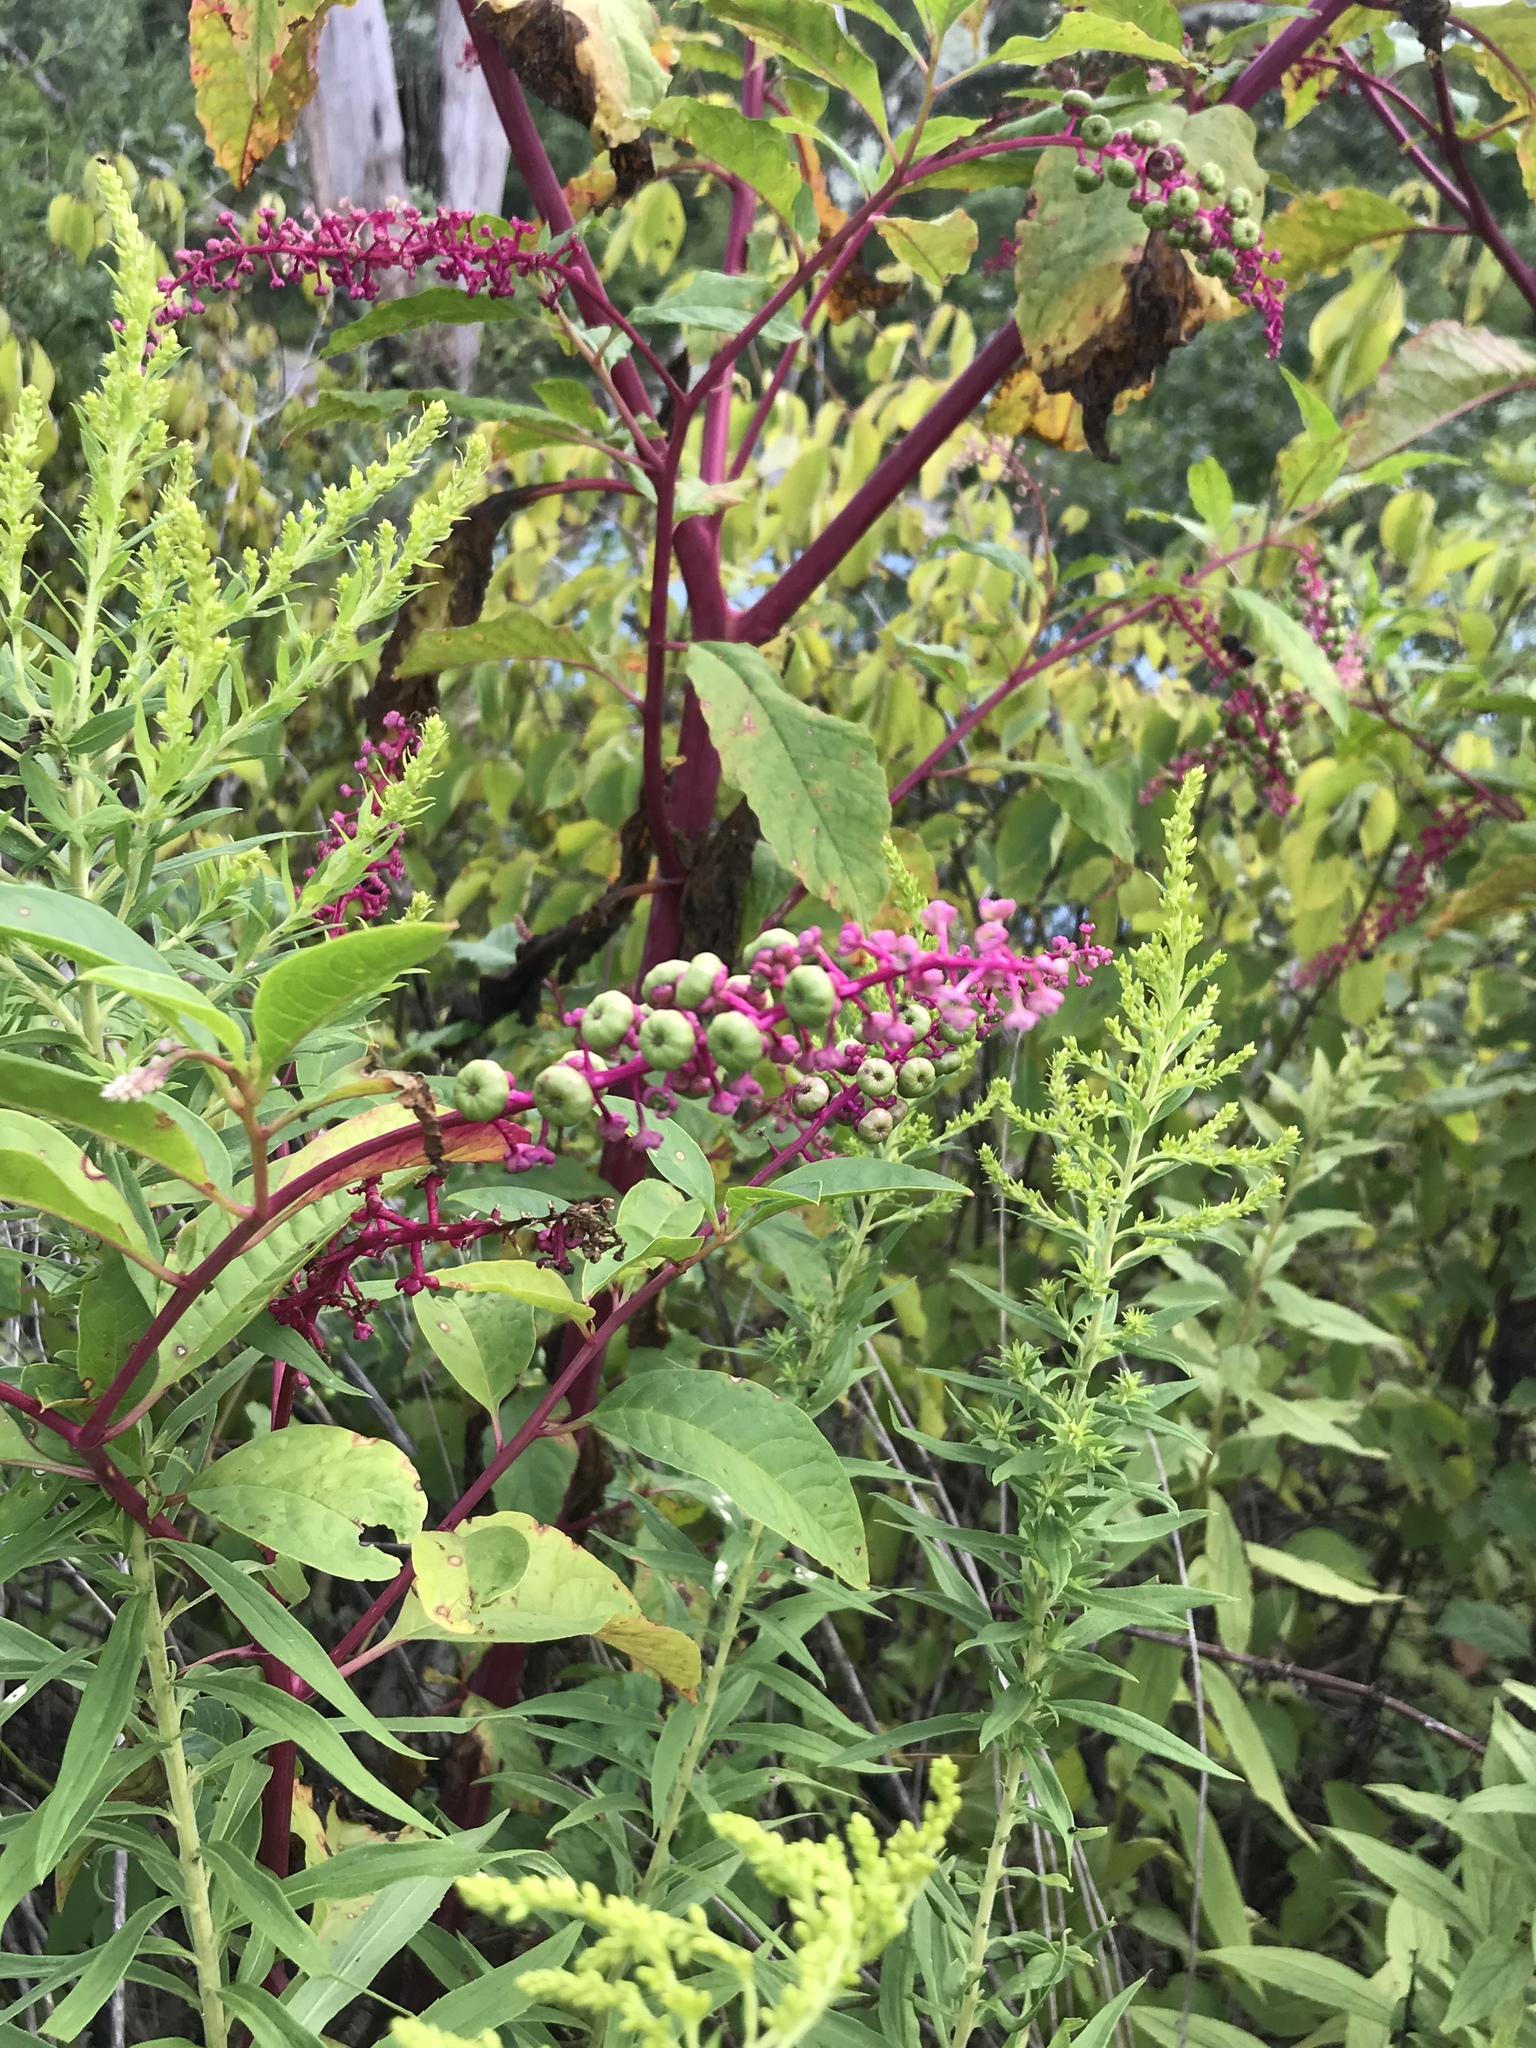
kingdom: Plantae
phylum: Tracheophyta
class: Magnoliopsida
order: Caryophyllales
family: Phytolaccaceae
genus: Phytolacca
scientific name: Phytolacca americana
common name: American pokeweed
